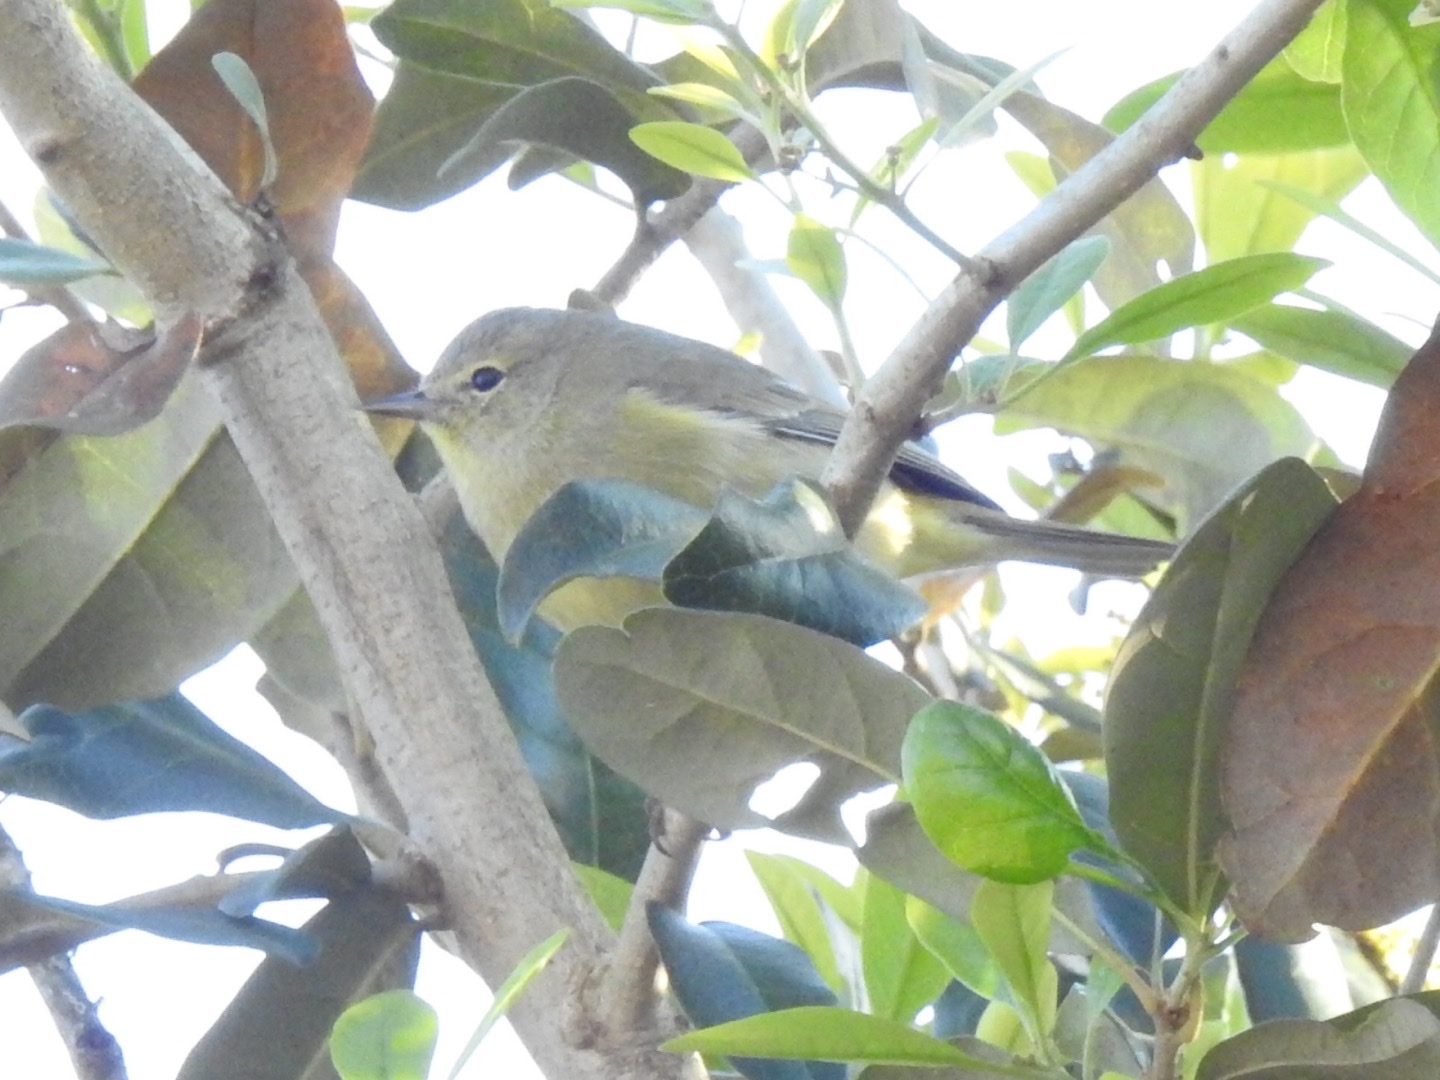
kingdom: Animalia
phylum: Chordata
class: Aves
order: Passeriformes
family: Parulidae
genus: Leiothlypis
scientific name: Leiothlypis celata
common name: Orange-crowned warbler
